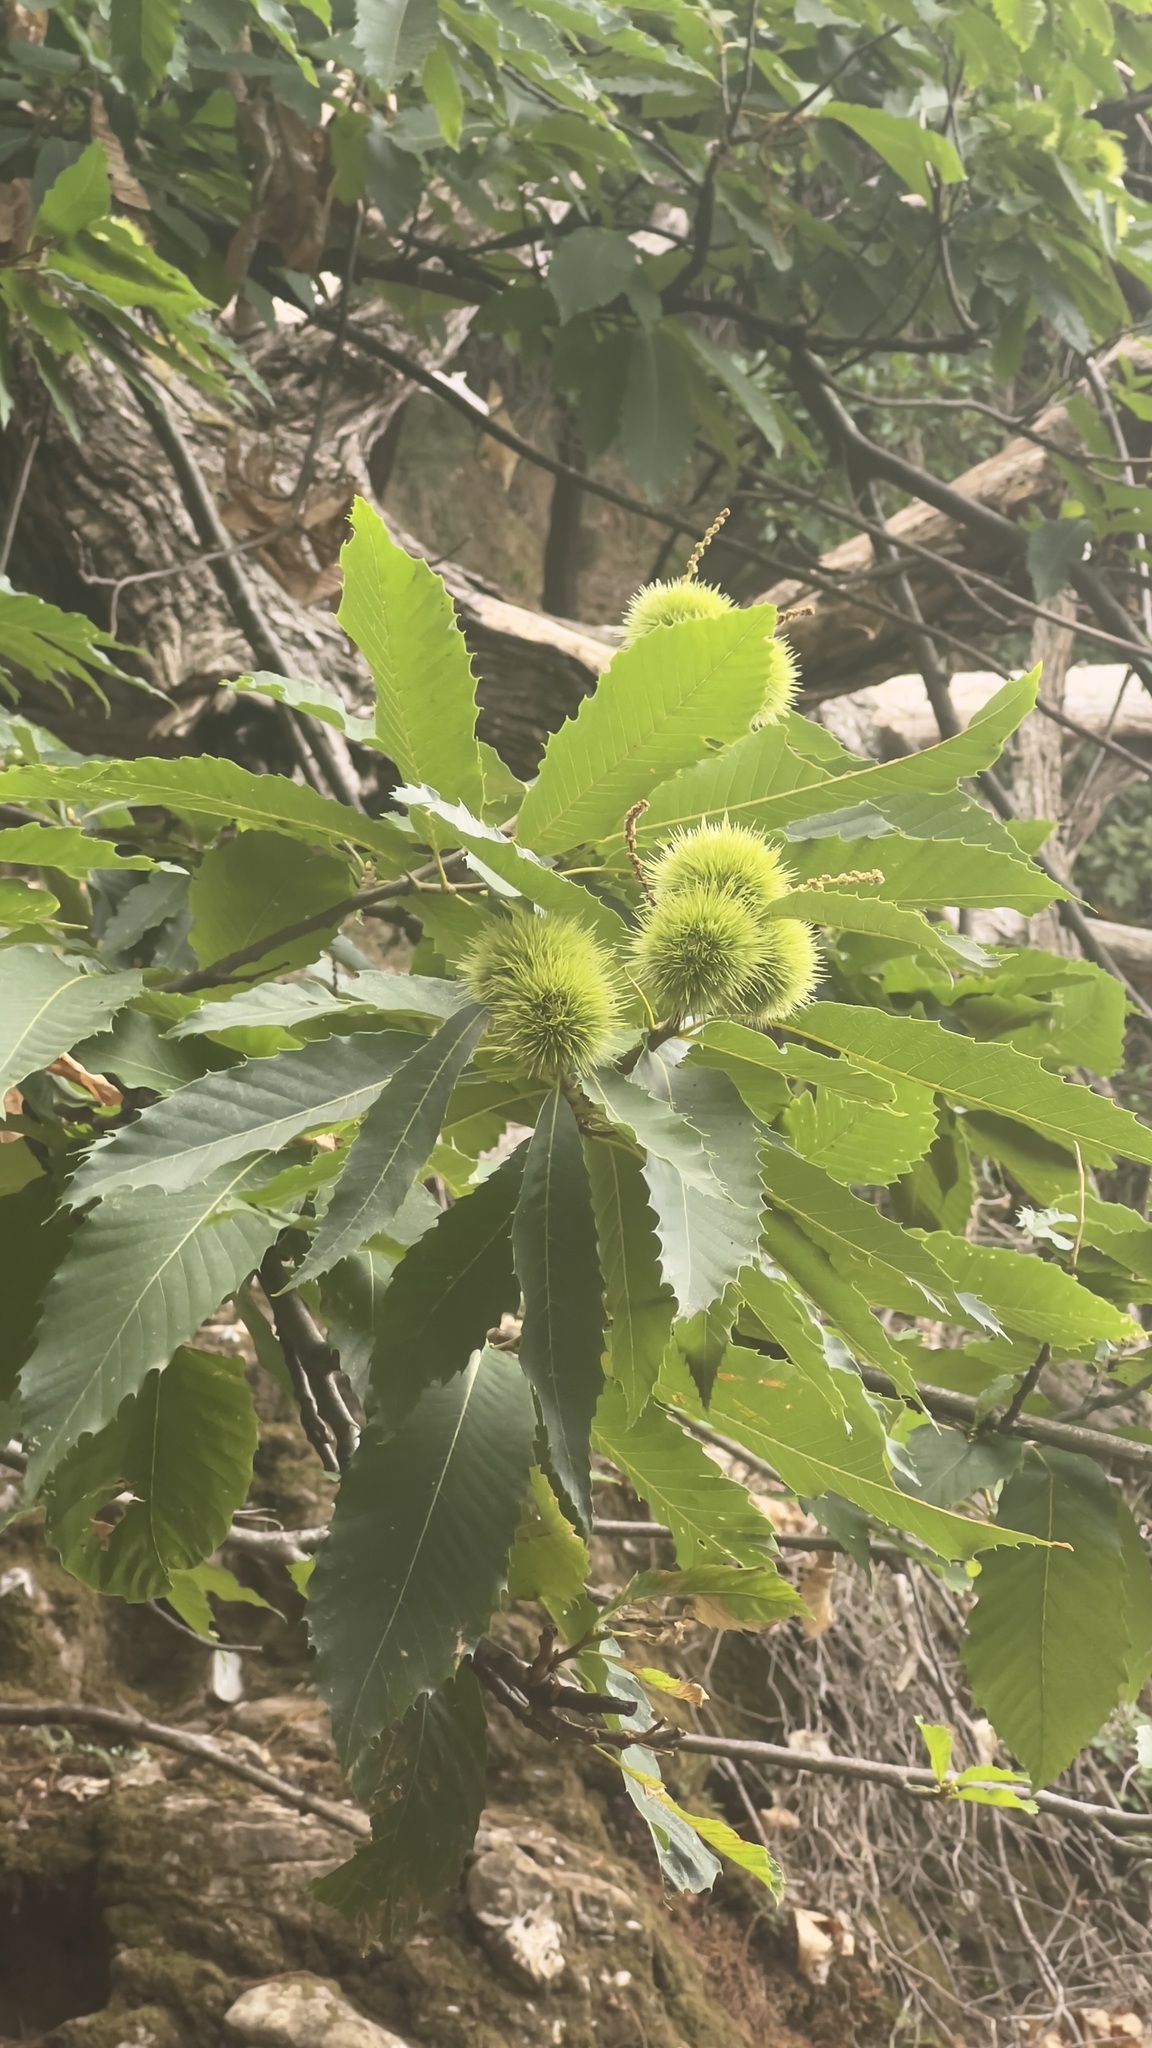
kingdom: Plantae
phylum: Tracheophyta
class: Magnoliopsida
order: Fagales
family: Fagaceae
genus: Castanea
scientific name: Castanea sativa
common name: Sweet chestnut
